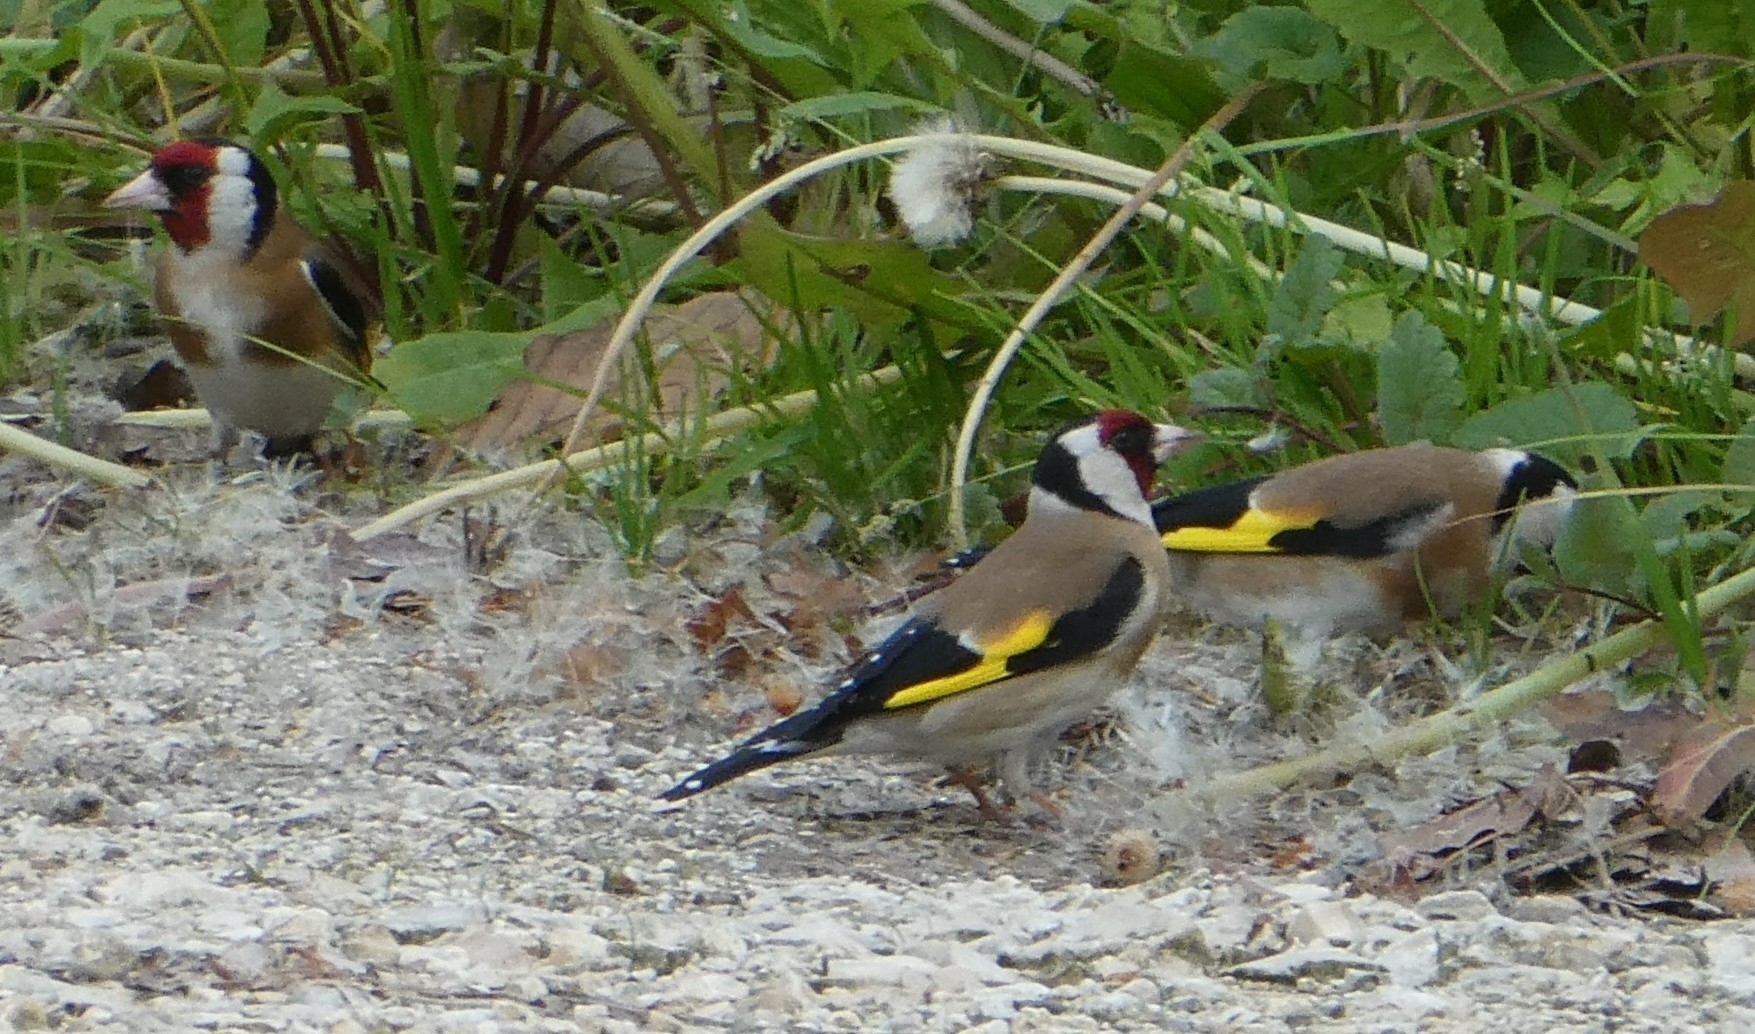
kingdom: Animalia
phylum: Chordata
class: Aves
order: Passeriformes
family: Fringillidae
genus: Carduelis
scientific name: Carduelis carduelis
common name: European goldfinch
